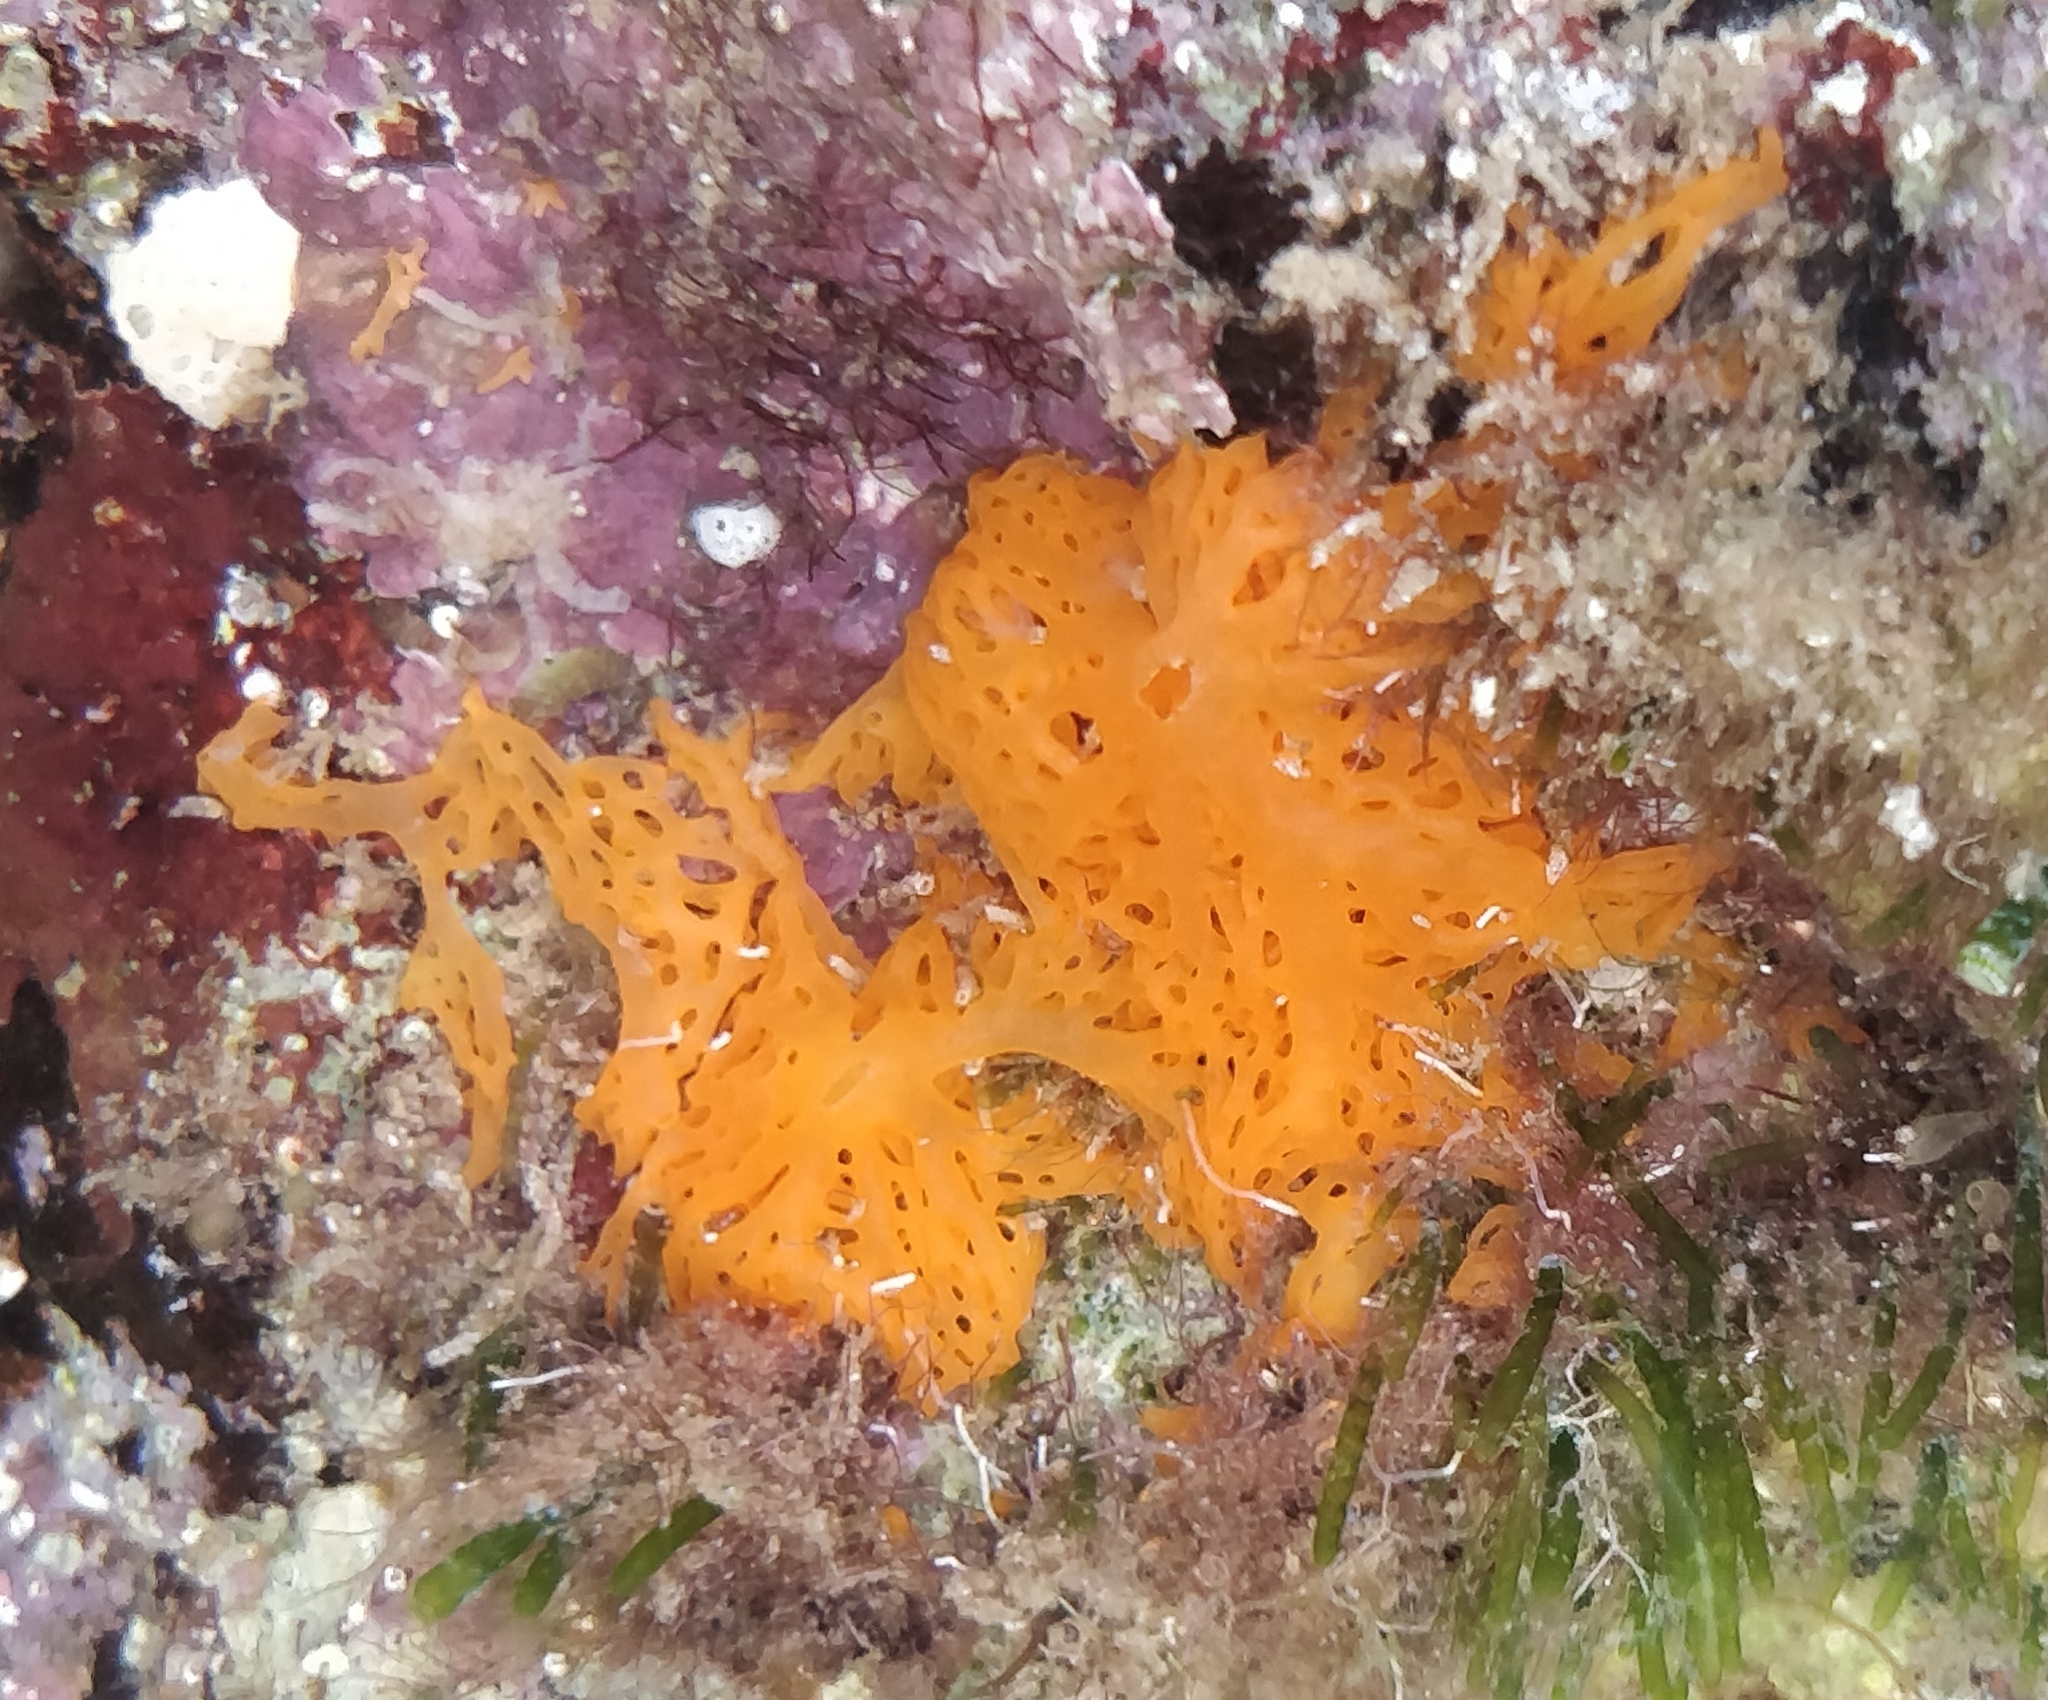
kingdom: Animalia
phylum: Porifera
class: Calcarea
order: Clathrinida
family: Clathrinidae
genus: Clathrina
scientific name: Clathrina rubra
